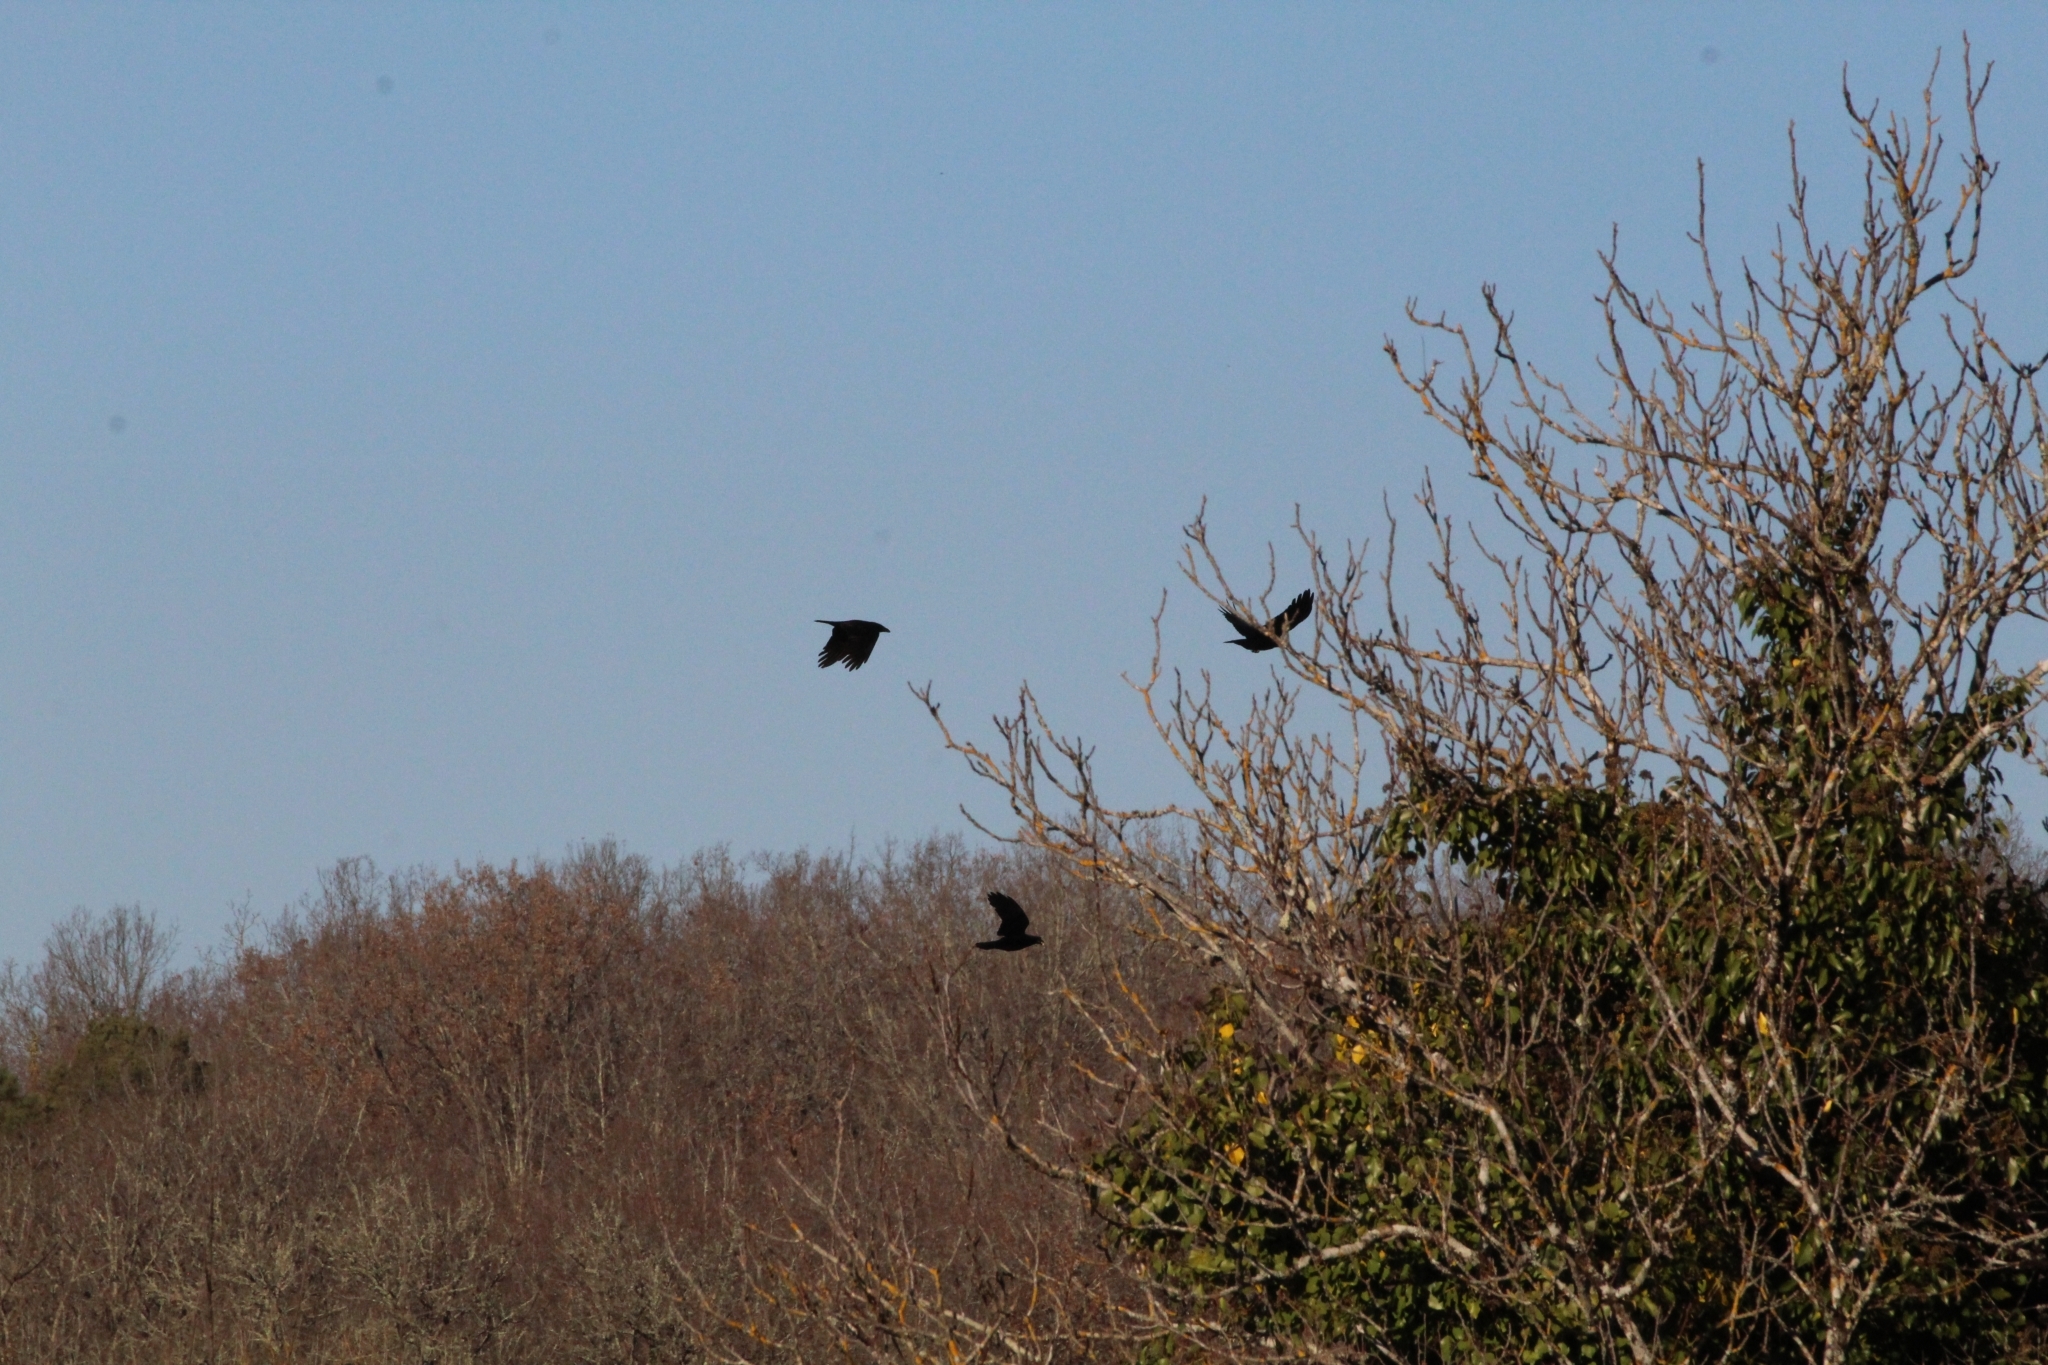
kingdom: Animalia
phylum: Chordata
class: Aves
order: Passeriformes
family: Corvidae
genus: Corvus
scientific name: Corvus corone
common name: Carrion crow
